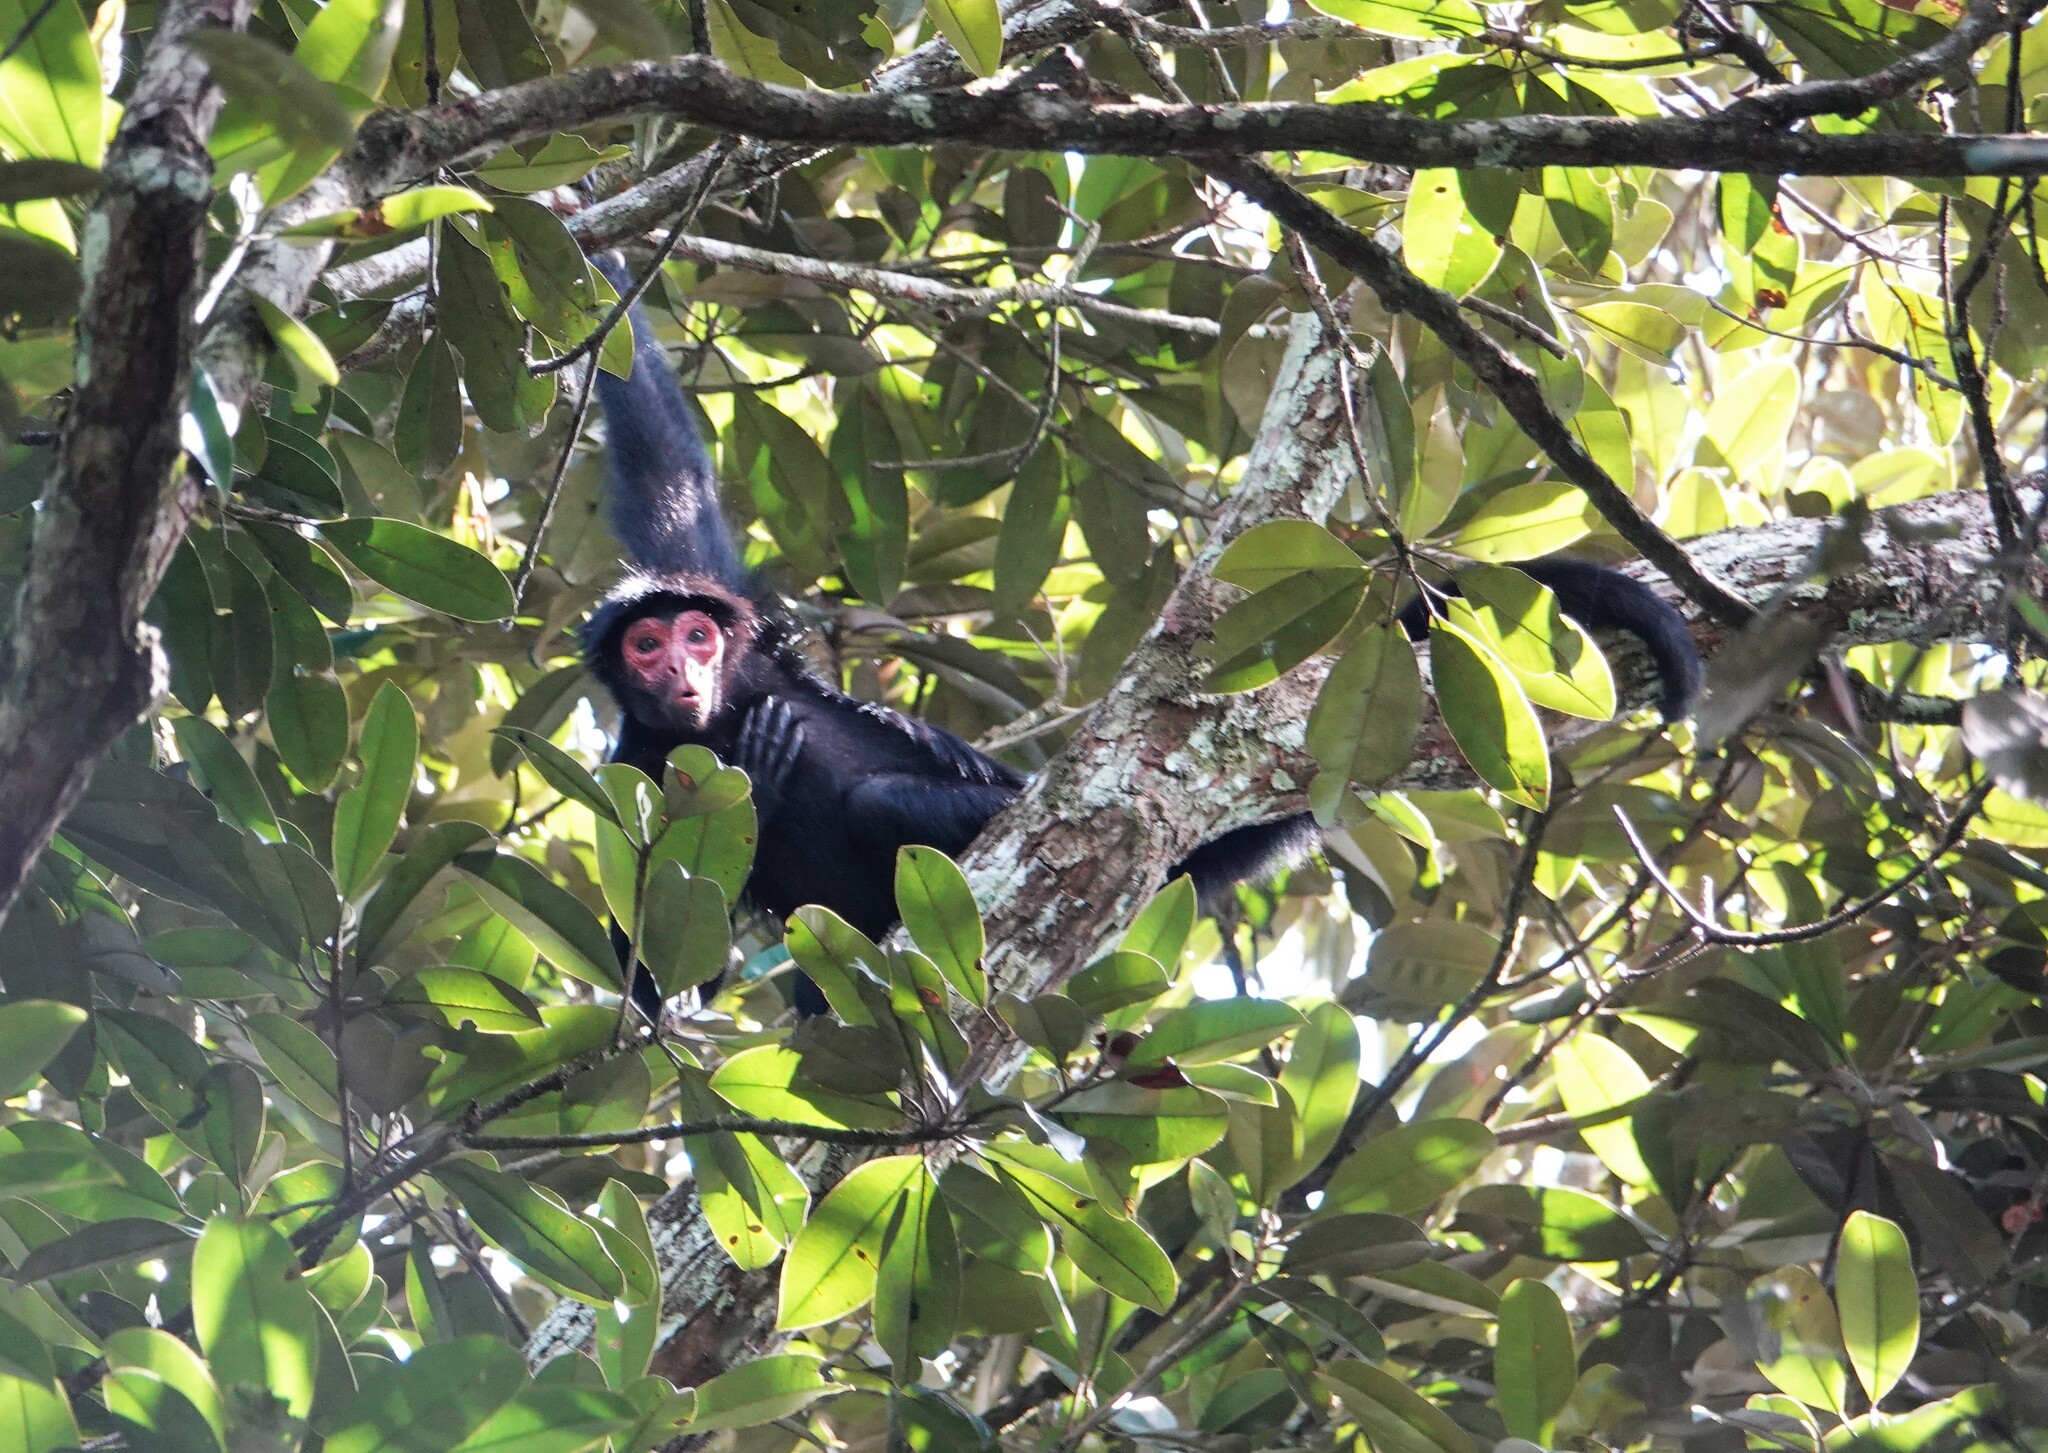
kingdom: Animalia
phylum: Chordata
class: Mammalia
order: Primates
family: Atelidae
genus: Ateles
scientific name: Ateles paniscus
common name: Red-faced spider monkey
